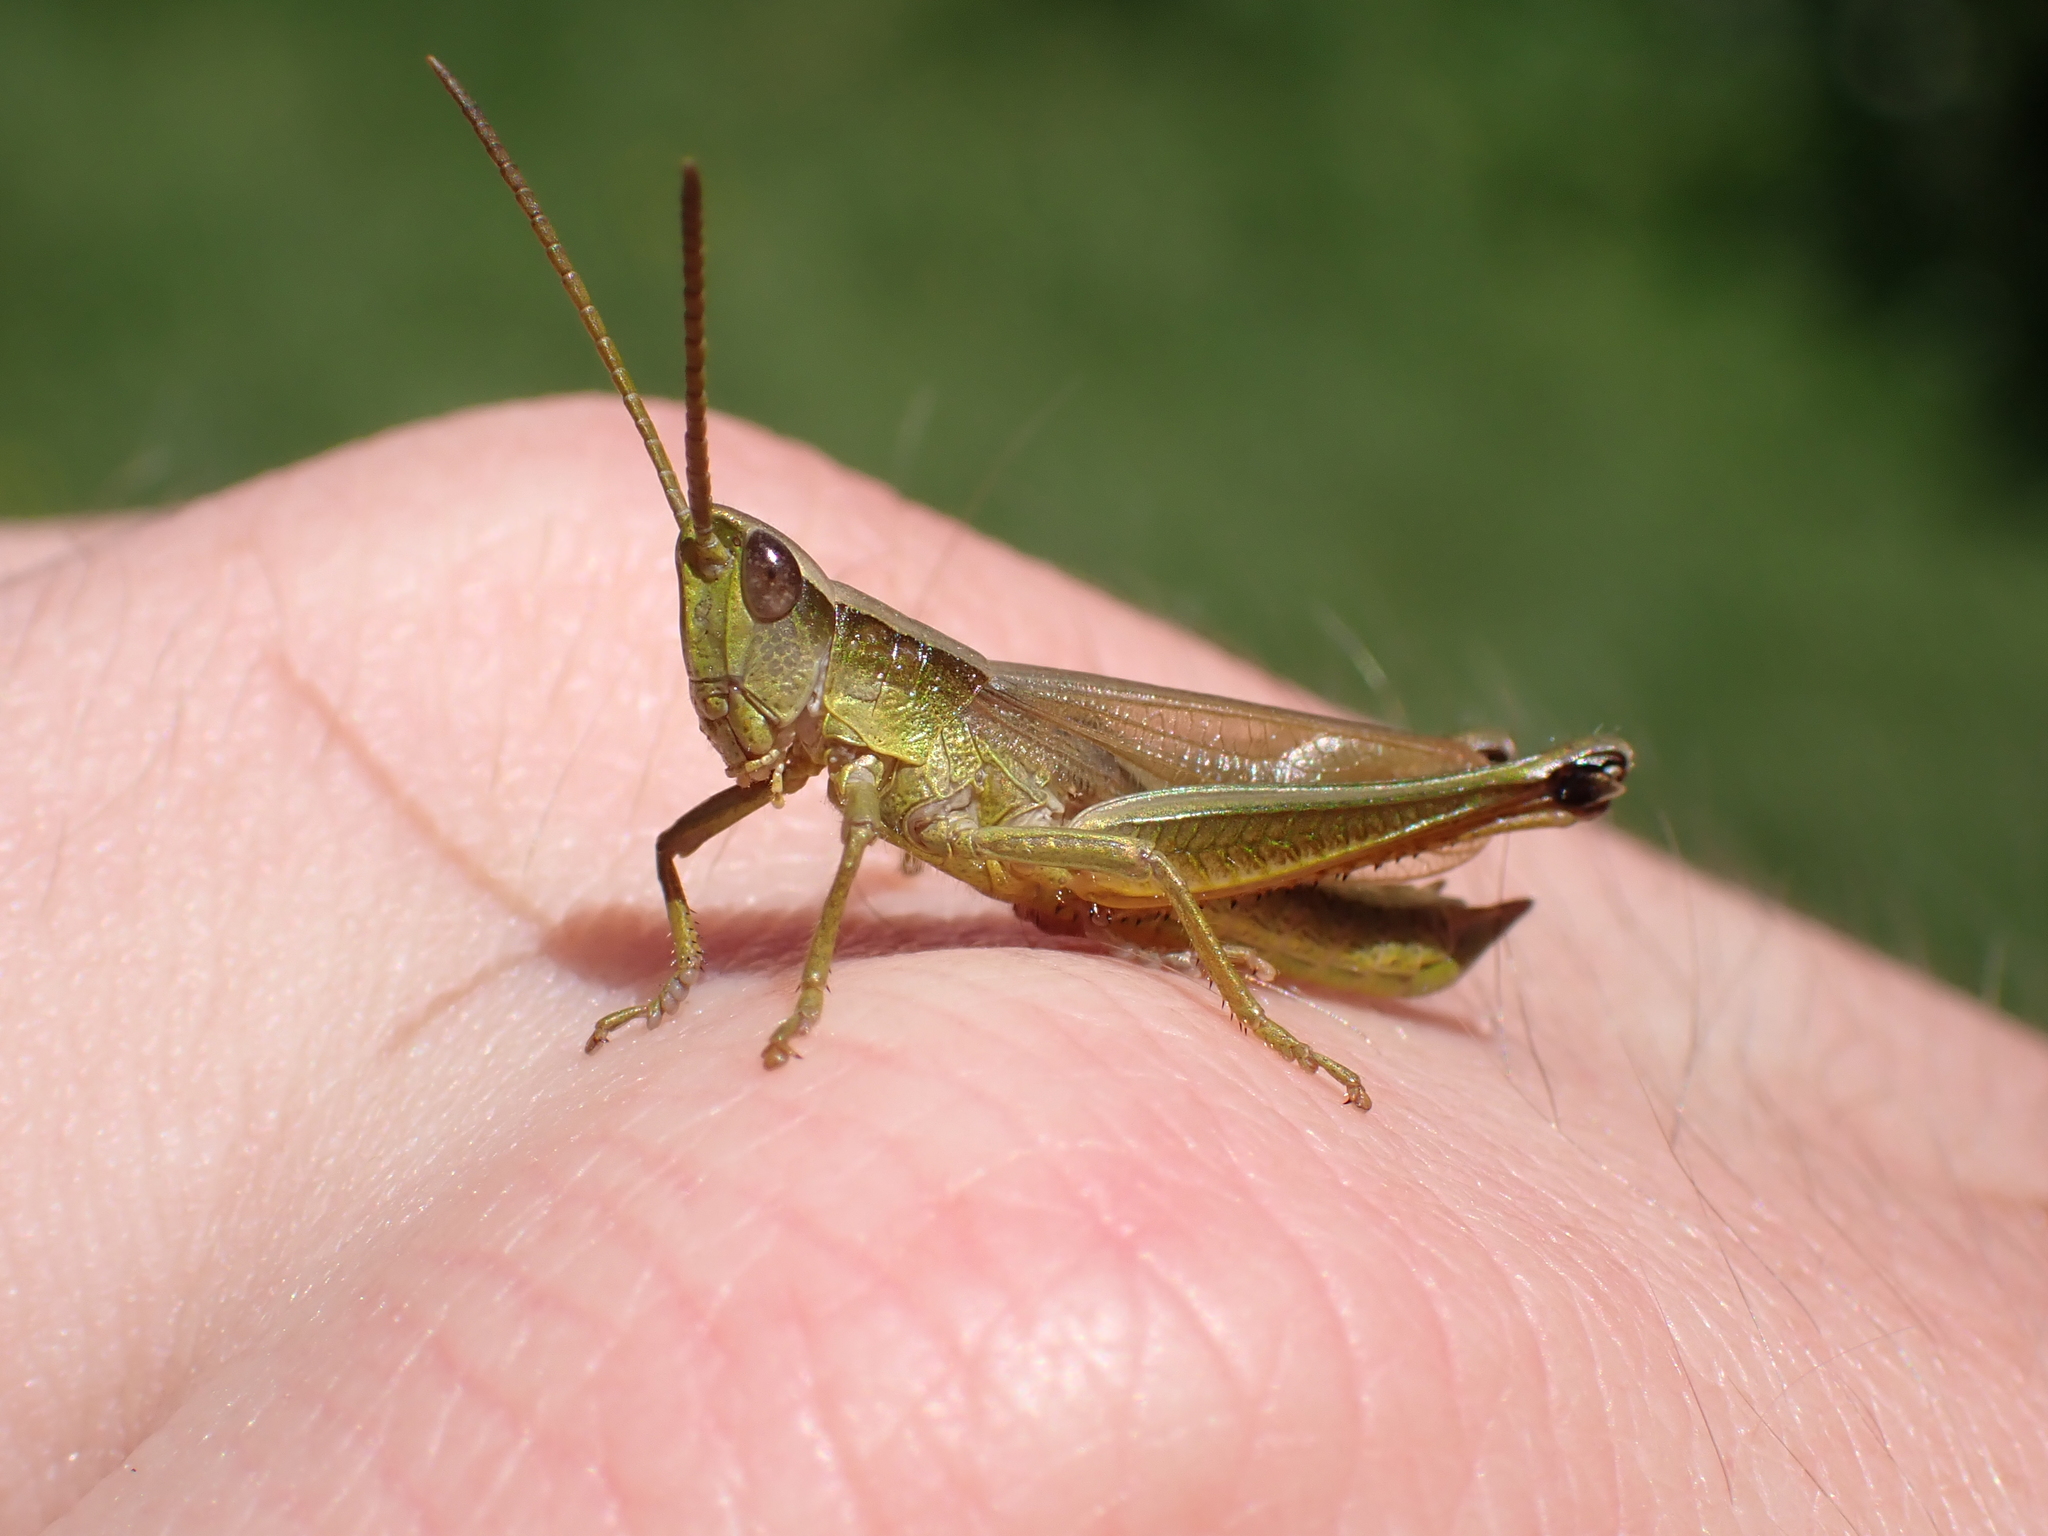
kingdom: Animalia
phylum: Arthropoda
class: Insecta
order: Orthoptera
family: Acrididae
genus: Chrysochraon
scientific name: Chrysochraon dispar
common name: Large gold grasshopper
